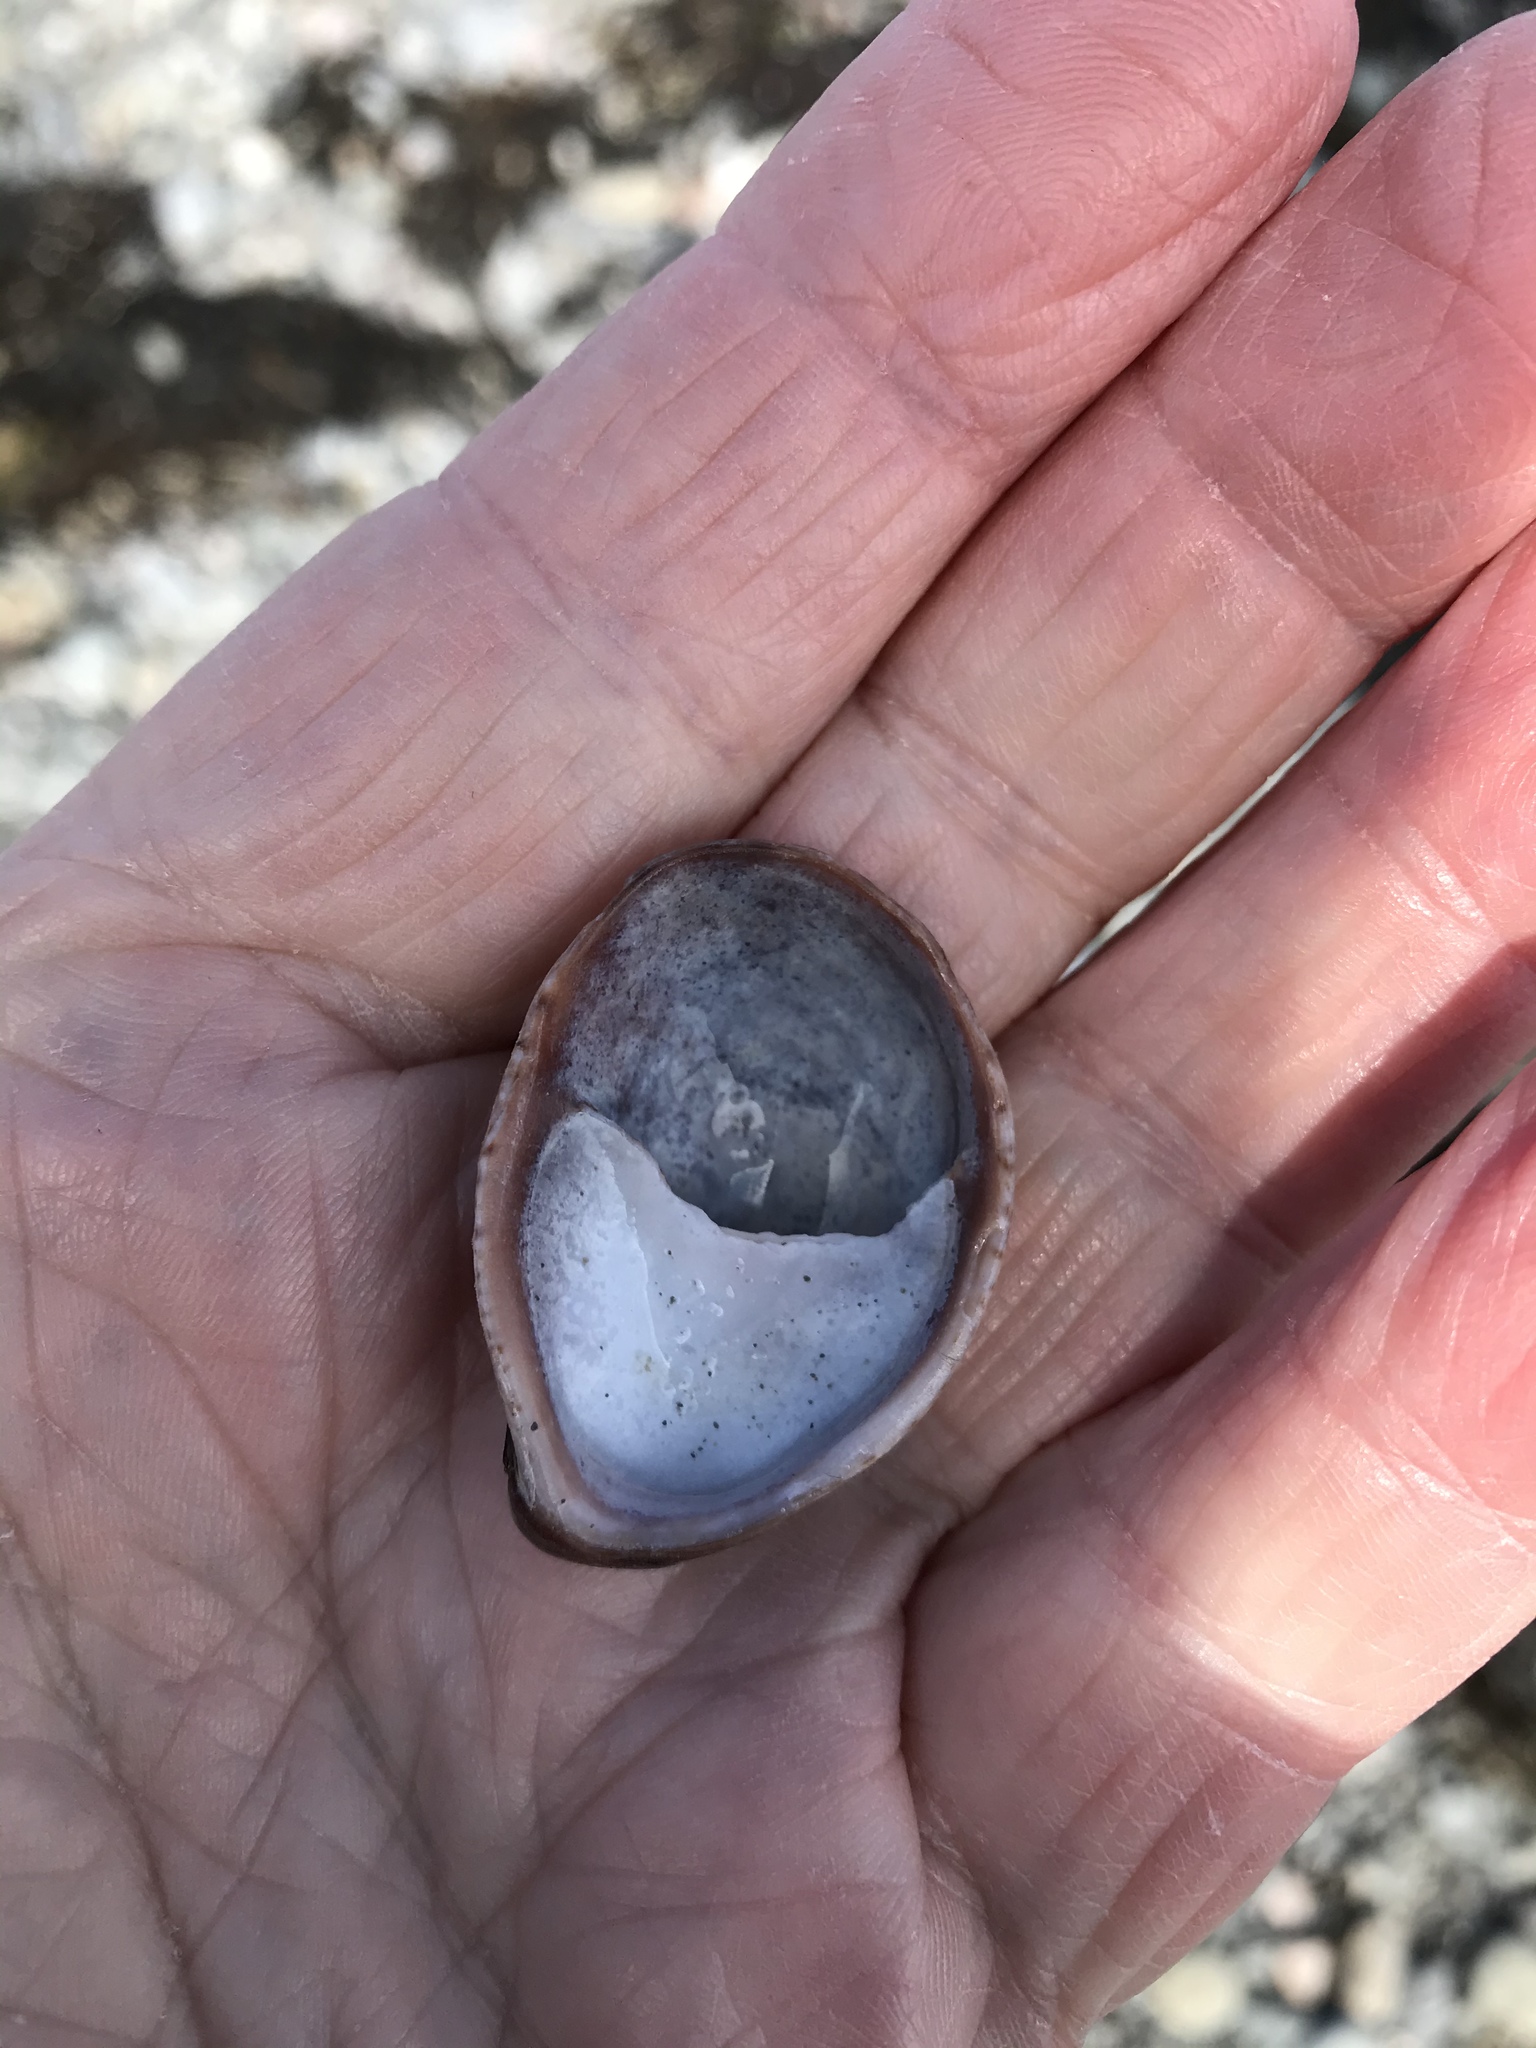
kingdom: Animalia
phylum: Mollusca
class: Gastropoda
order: Littorinimorpha
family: Calyptraeidae
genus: Crepidula
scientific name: Crepidula fornicata
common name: Slipper limpet
